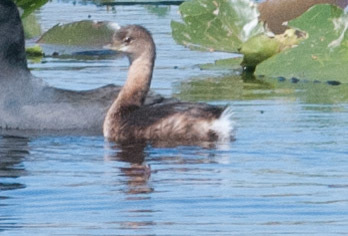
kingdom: Animalia
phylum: Chordata
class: Aves
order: Podicipediformes
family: Podicipedidae
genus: Podilymbus
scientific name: Podilymbus podiceps
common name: Pied-billed grebe
